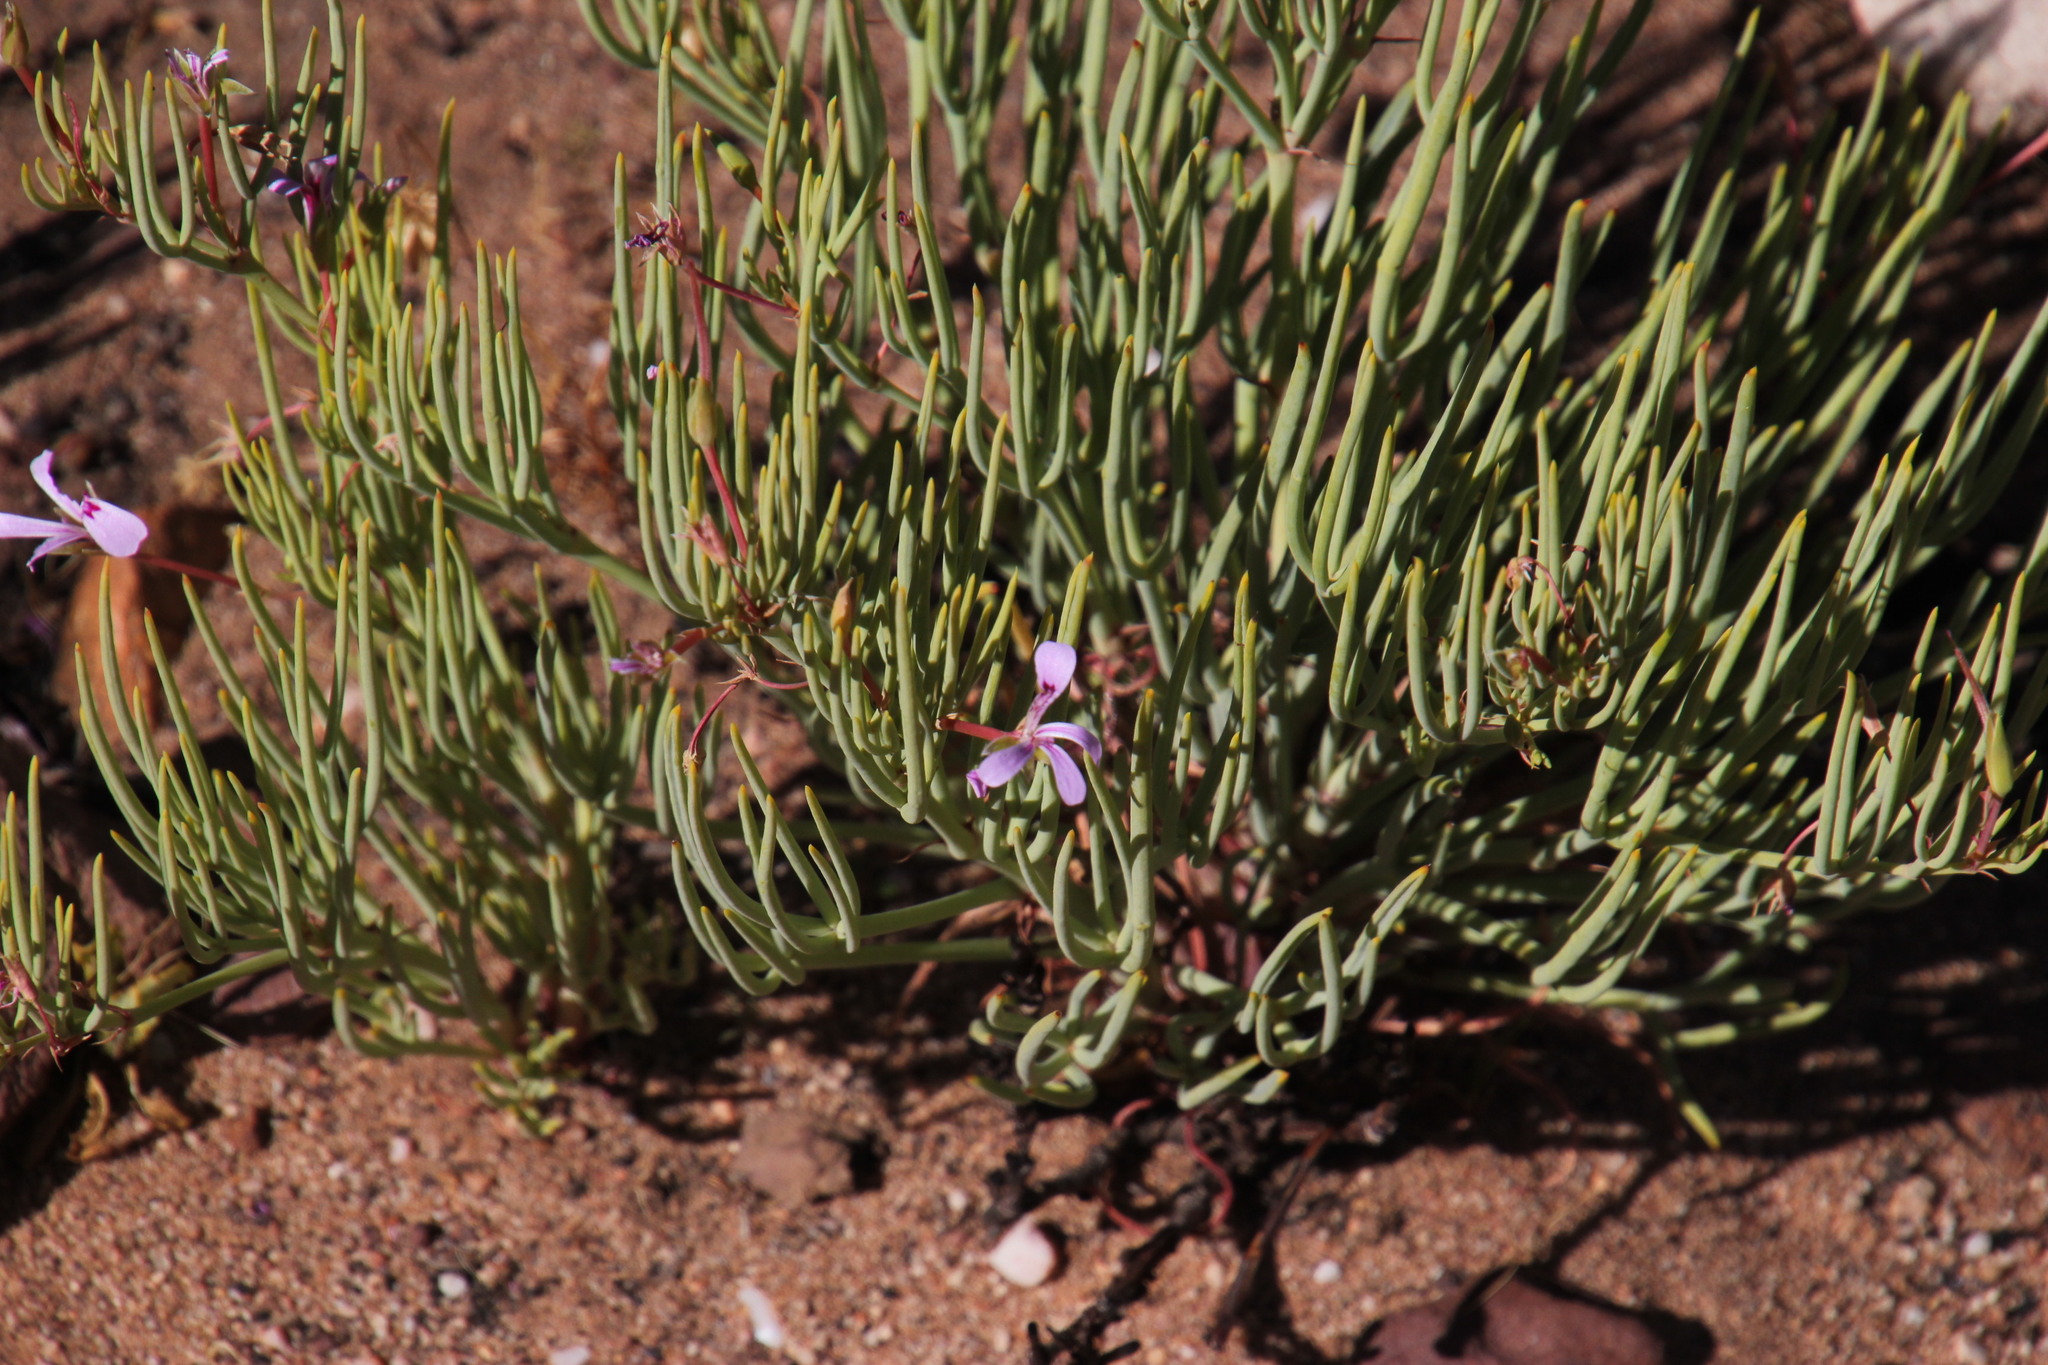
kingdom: Plantae
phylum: Tracheophyta
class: Magnoliopsida
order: Geraniales
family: Geraniaceae
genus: Pelargonium
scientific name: Pelargonium laevigatum
